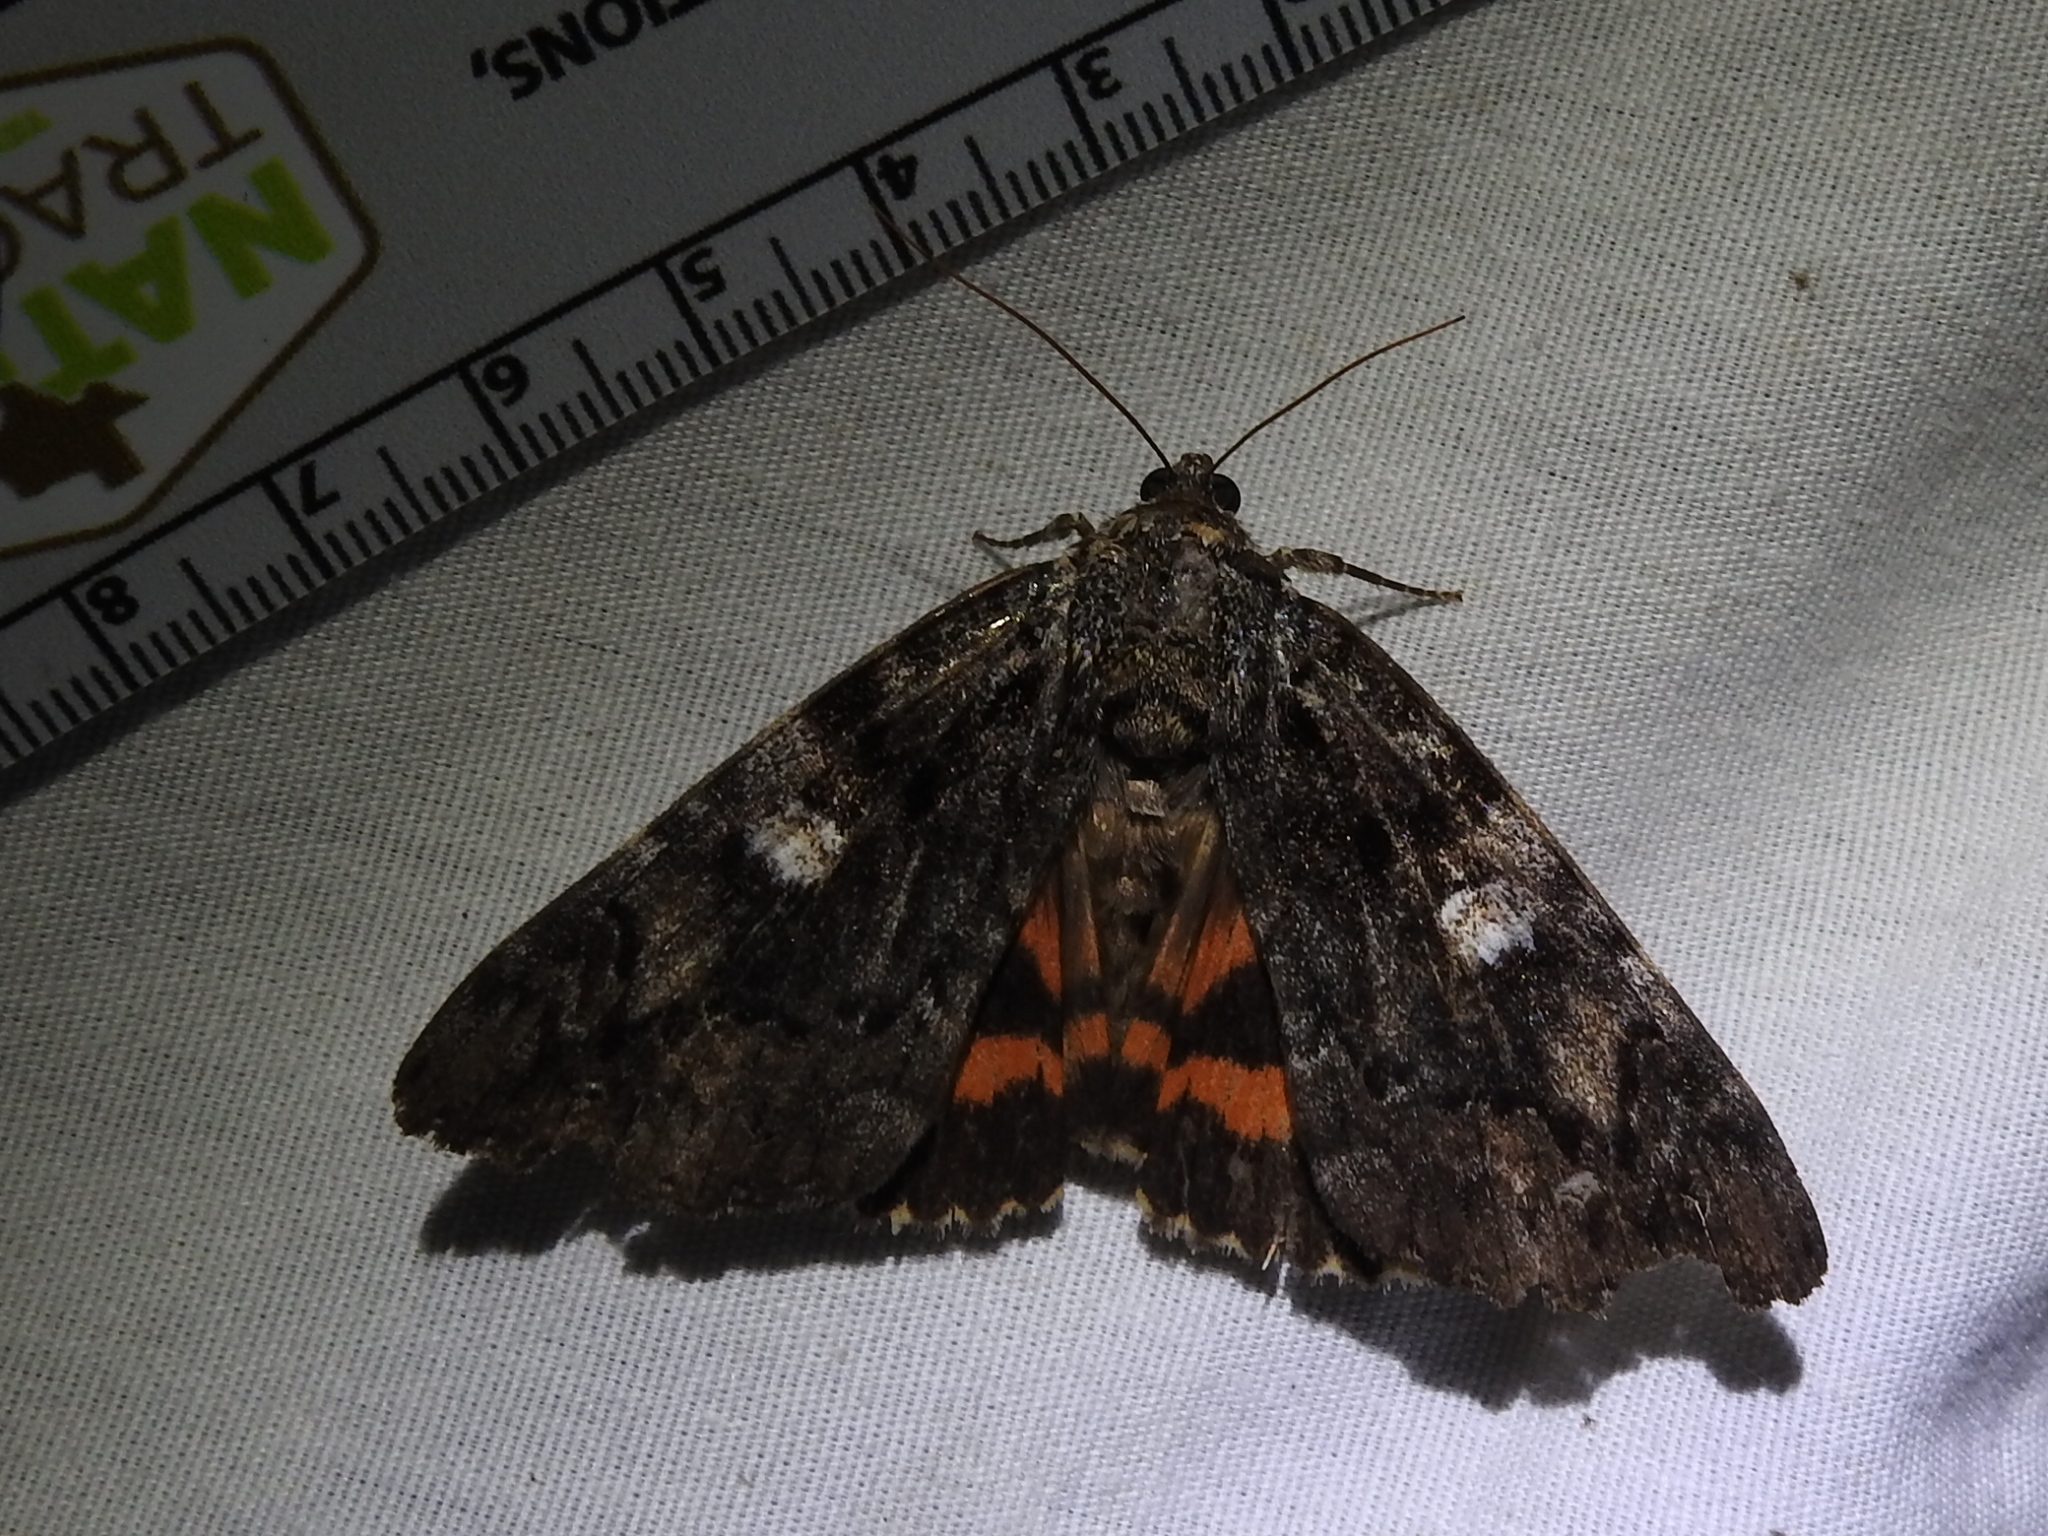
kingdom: Animalia
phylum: Arthropoda
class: Insecta
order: Lepidoptera
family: Erebidae
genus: Catocala
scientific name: Catocala ilia
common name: Ilia underwing
